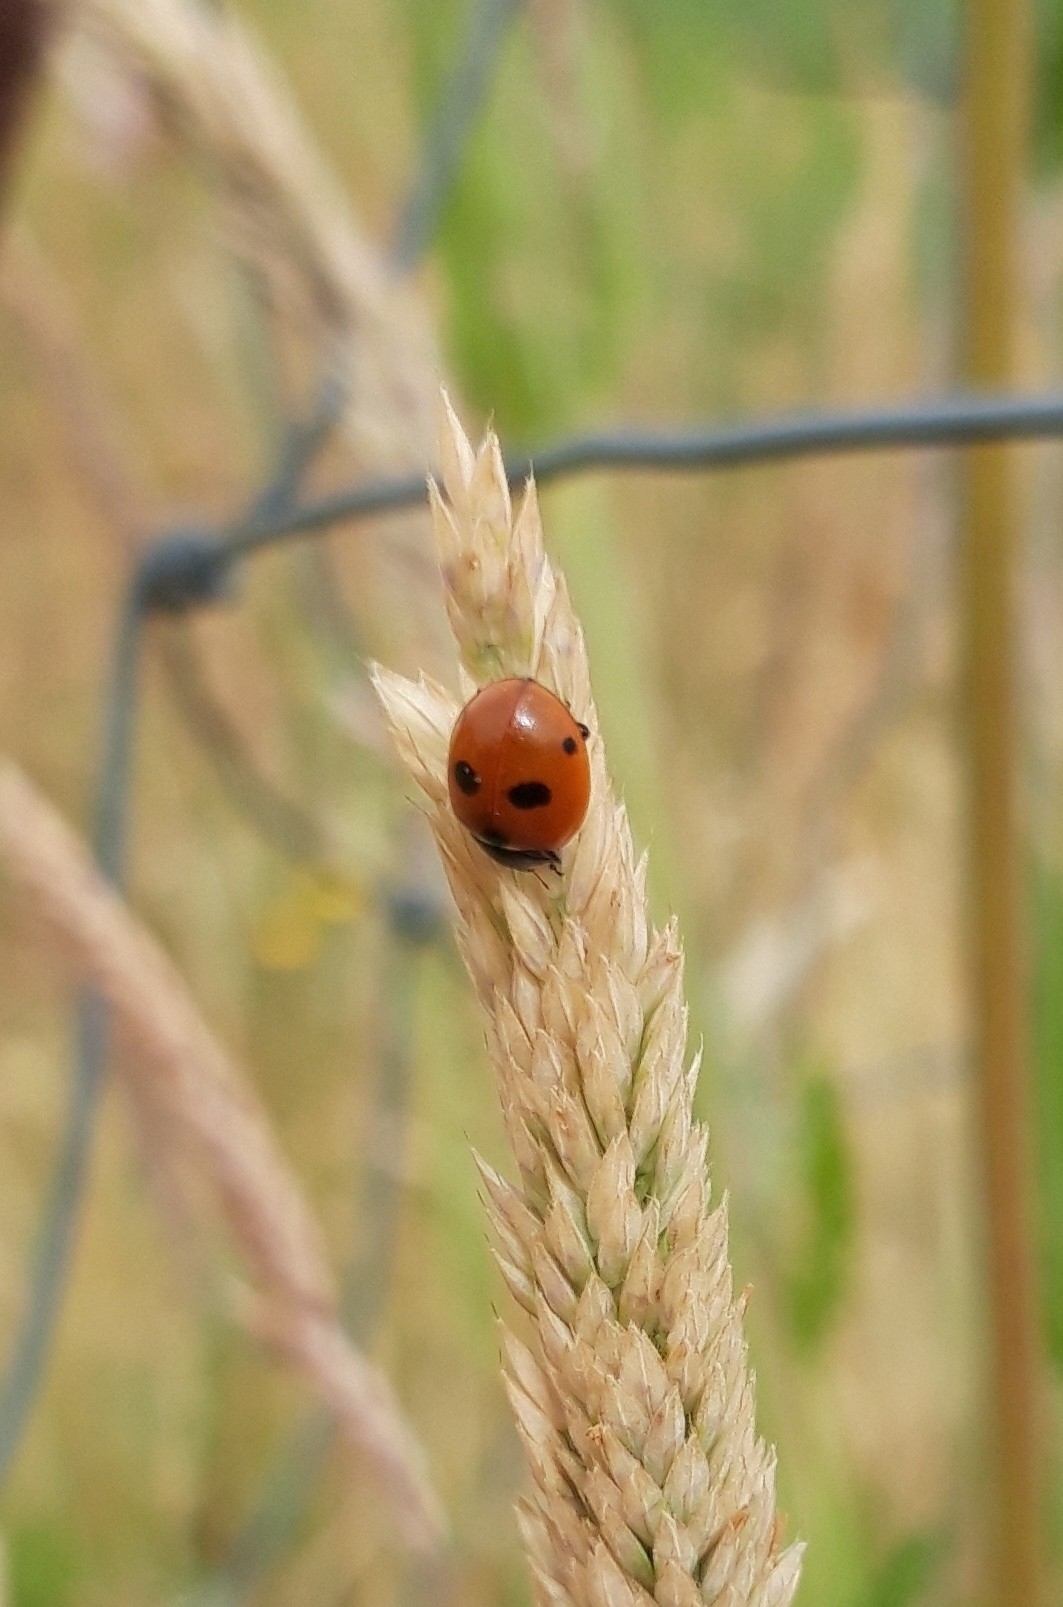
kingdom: Animalia
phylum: Arthropoda
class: Insecta
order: Coleoptera
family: Coccinellidae
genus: Coccinella
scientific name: Coccinella quinquepunctata
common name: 5-spot ladybird
